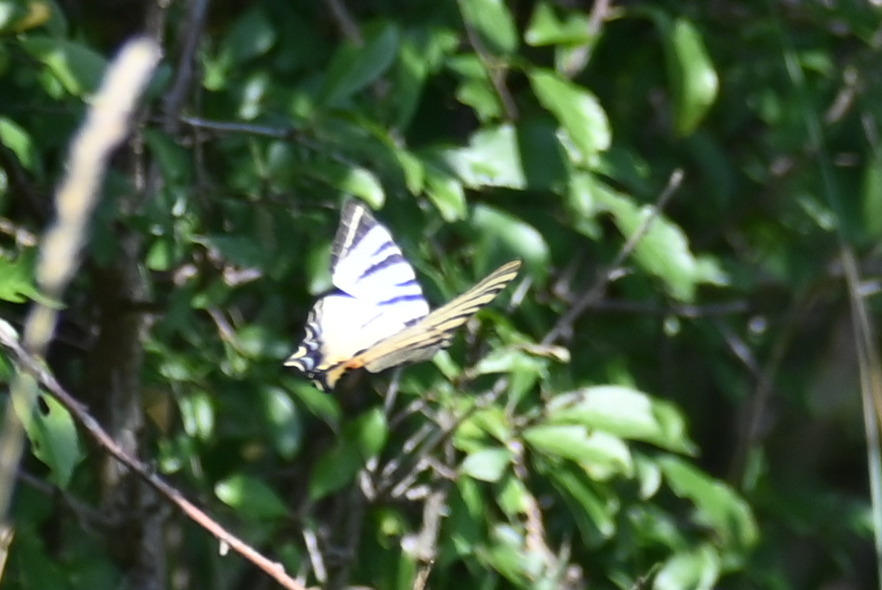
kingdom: Animalia
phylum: Arthropoda
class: Insecta
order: Lepidoptera
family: Papilionidae
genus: Iphiclides
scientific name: Iphiclides podalirius
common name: Scarce swallowtail
